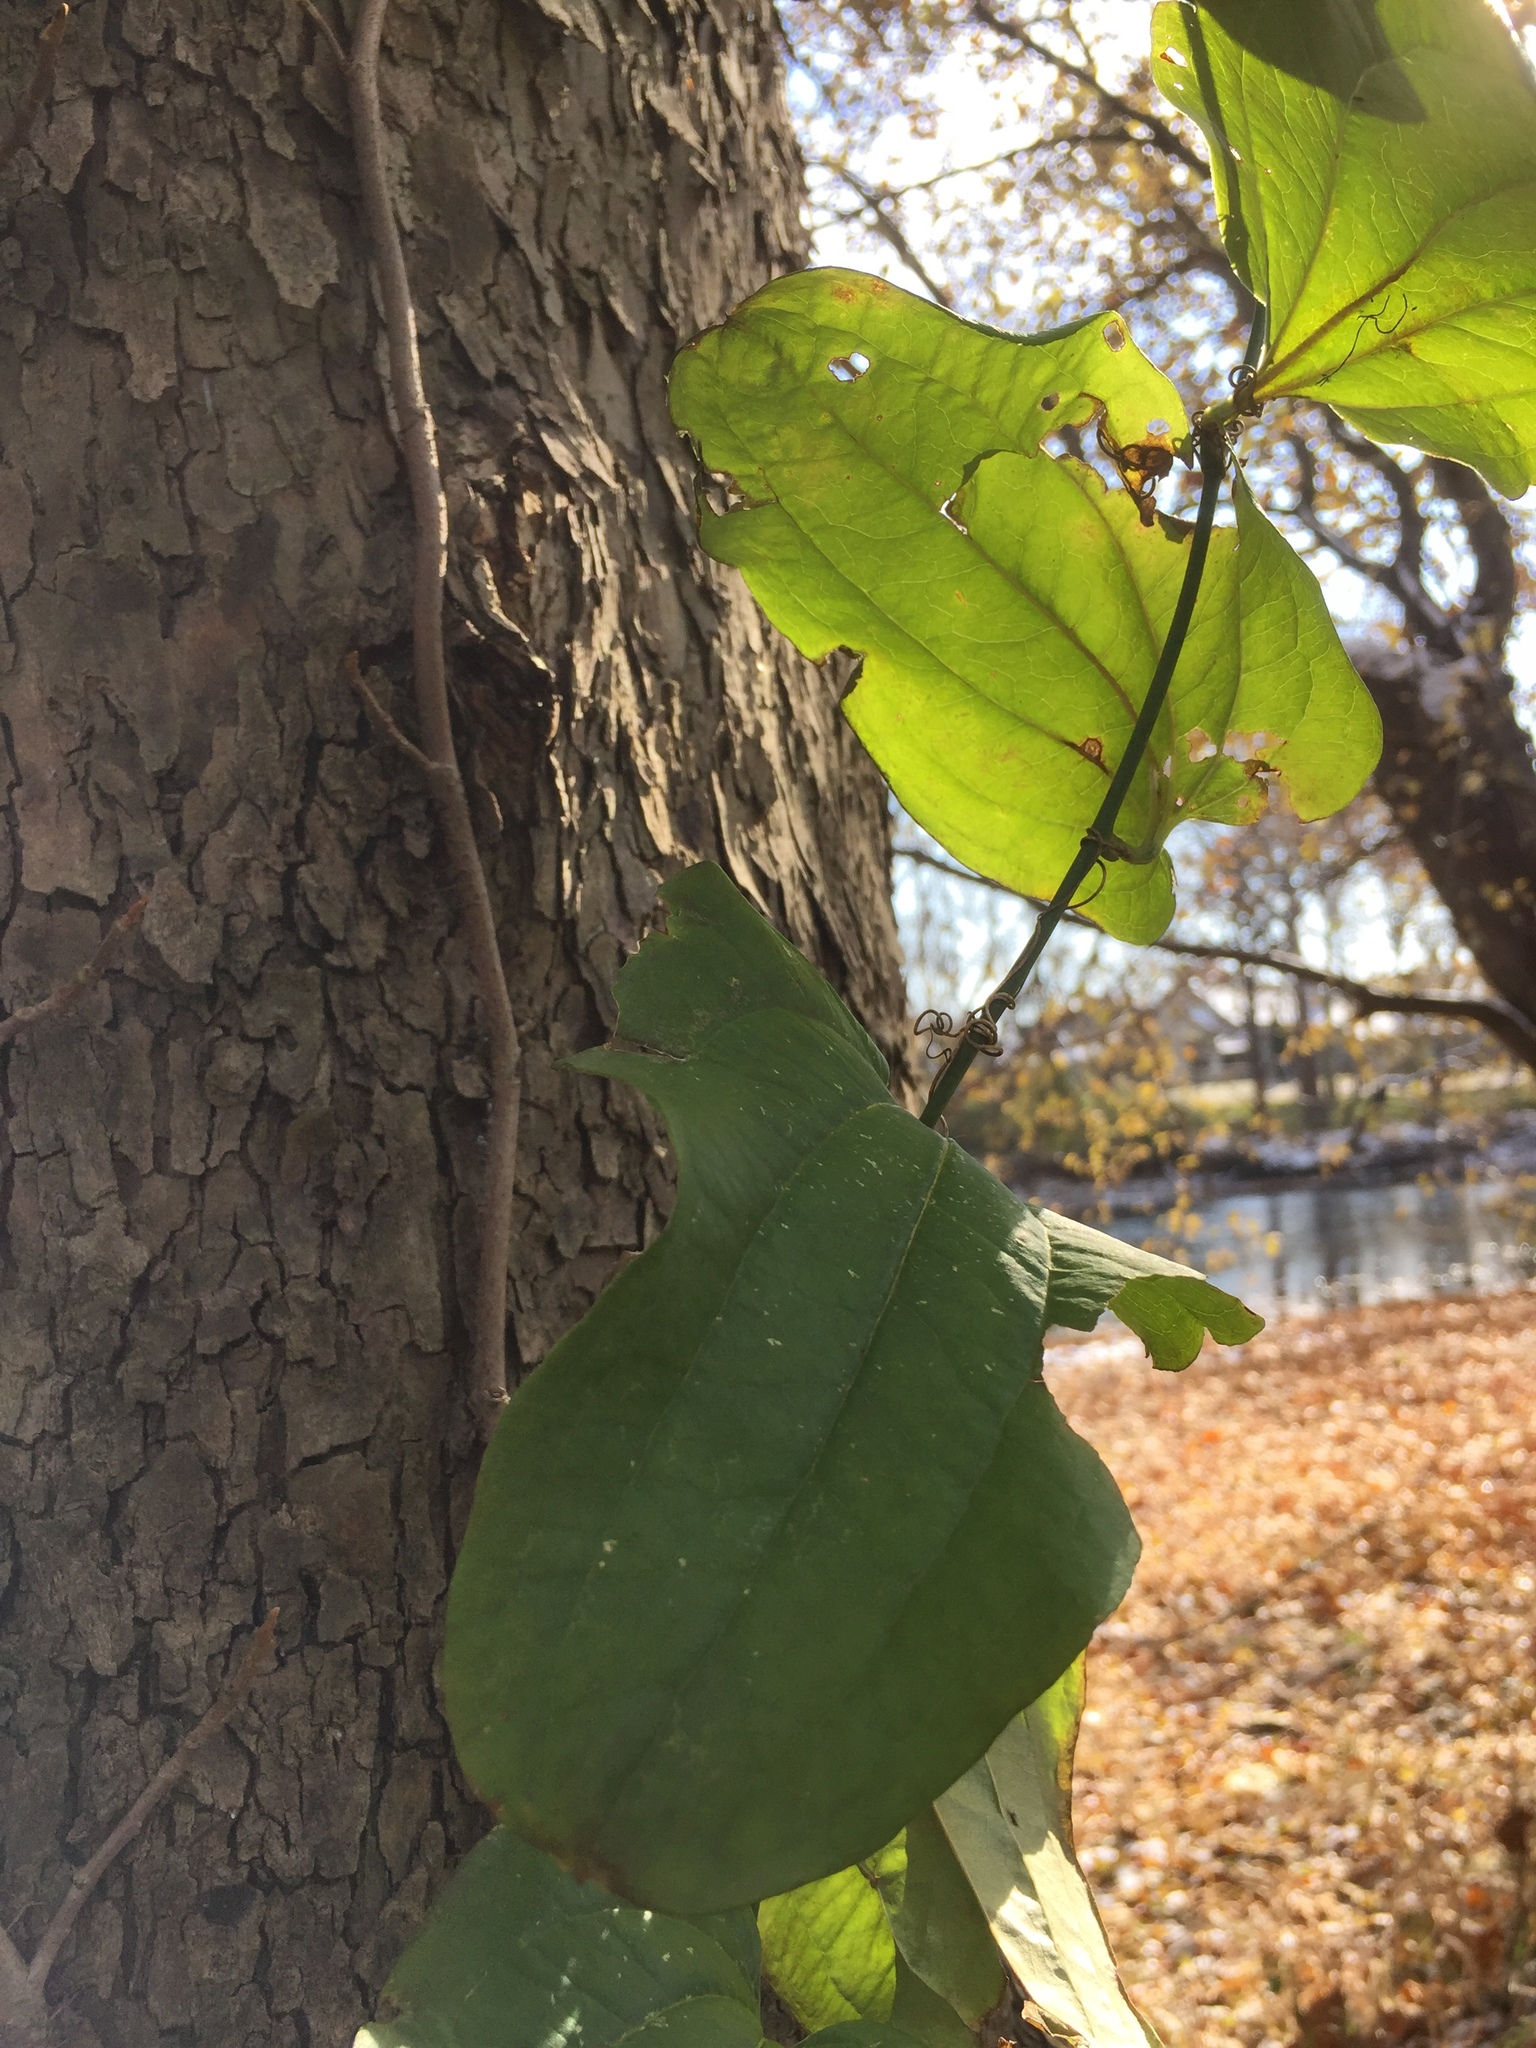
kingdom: Plantae
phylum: Tracheophyta
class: Liliopsida
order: Liliales
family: Smilacaceae
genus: Smilax
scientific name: Smilax tamnoides
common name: Hellfetter
